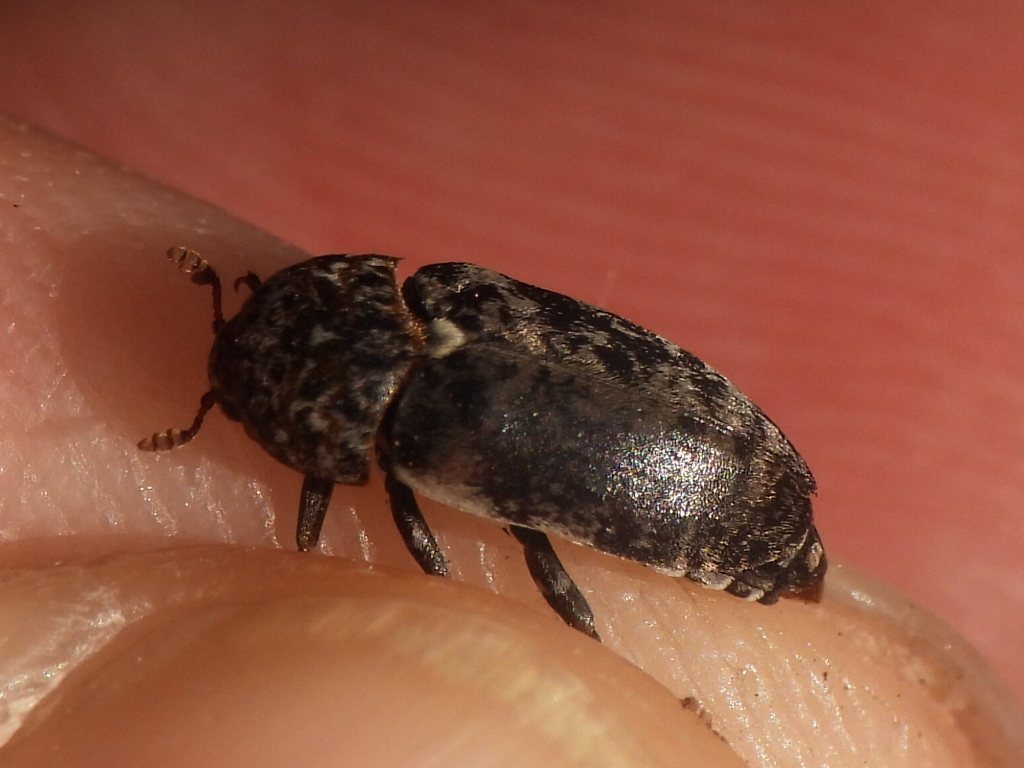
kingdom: Animalia
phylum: Arthropoda
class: Insecta
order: Coleoptera
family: Dermestidae
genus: Dermestes
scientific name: Dermestes caninus
